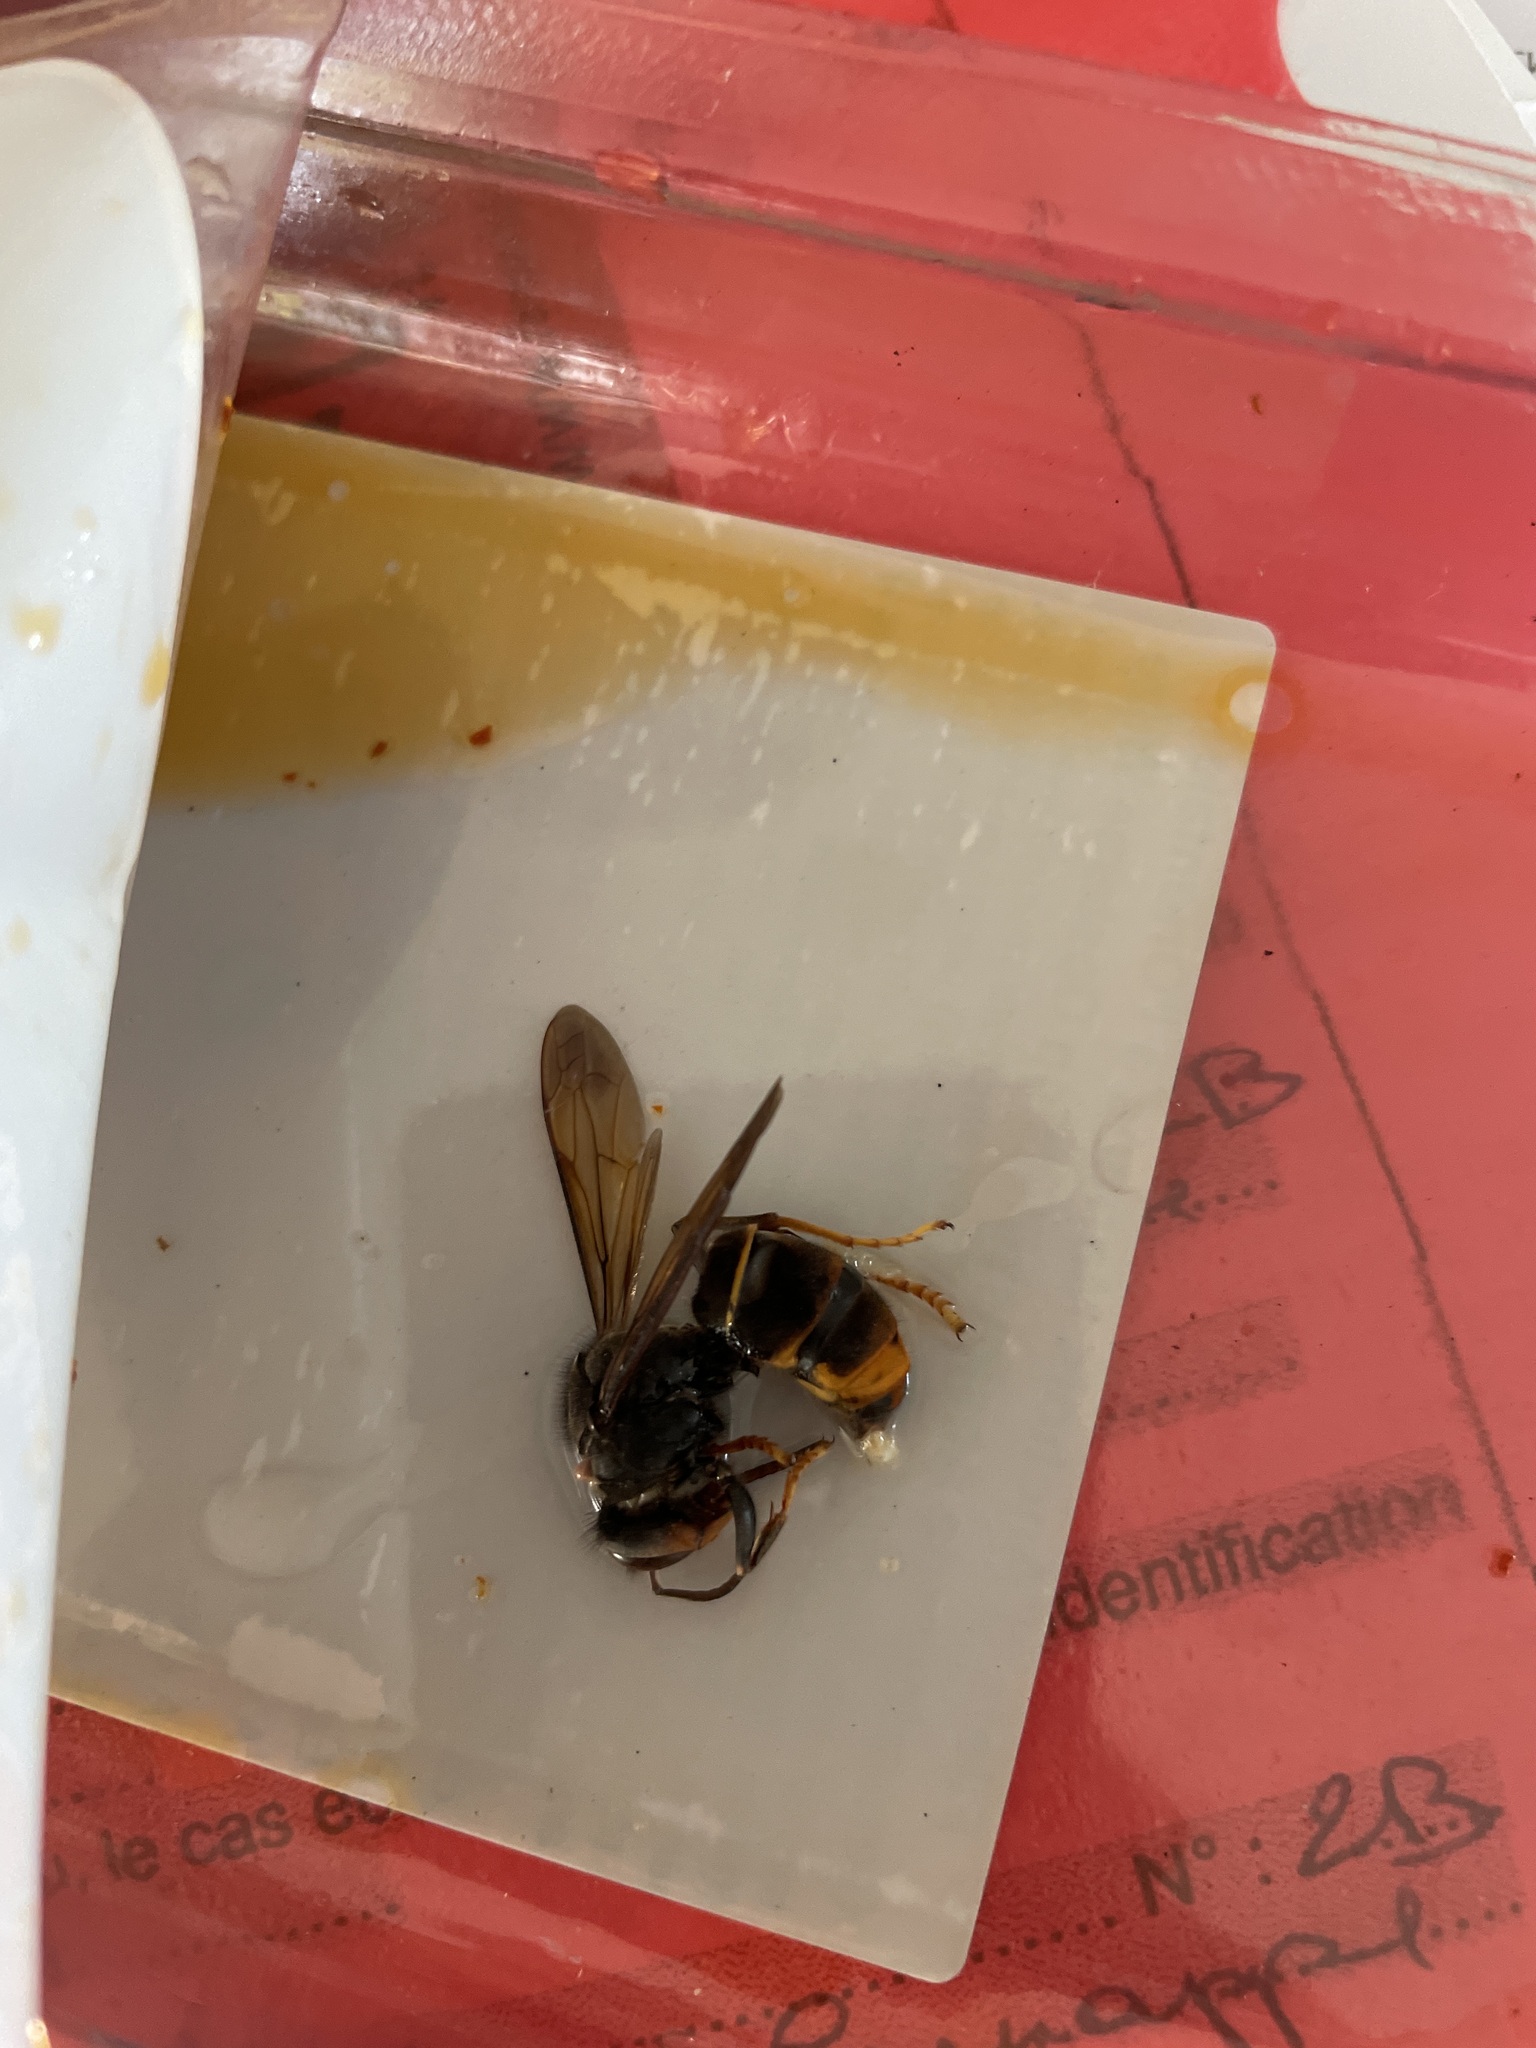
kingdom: Animalia
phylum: Arthropoda
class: Insecta
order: Hymenoptera
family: Vespidae
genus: Vespa
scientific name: Vespa velutina
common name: Asian hornet
